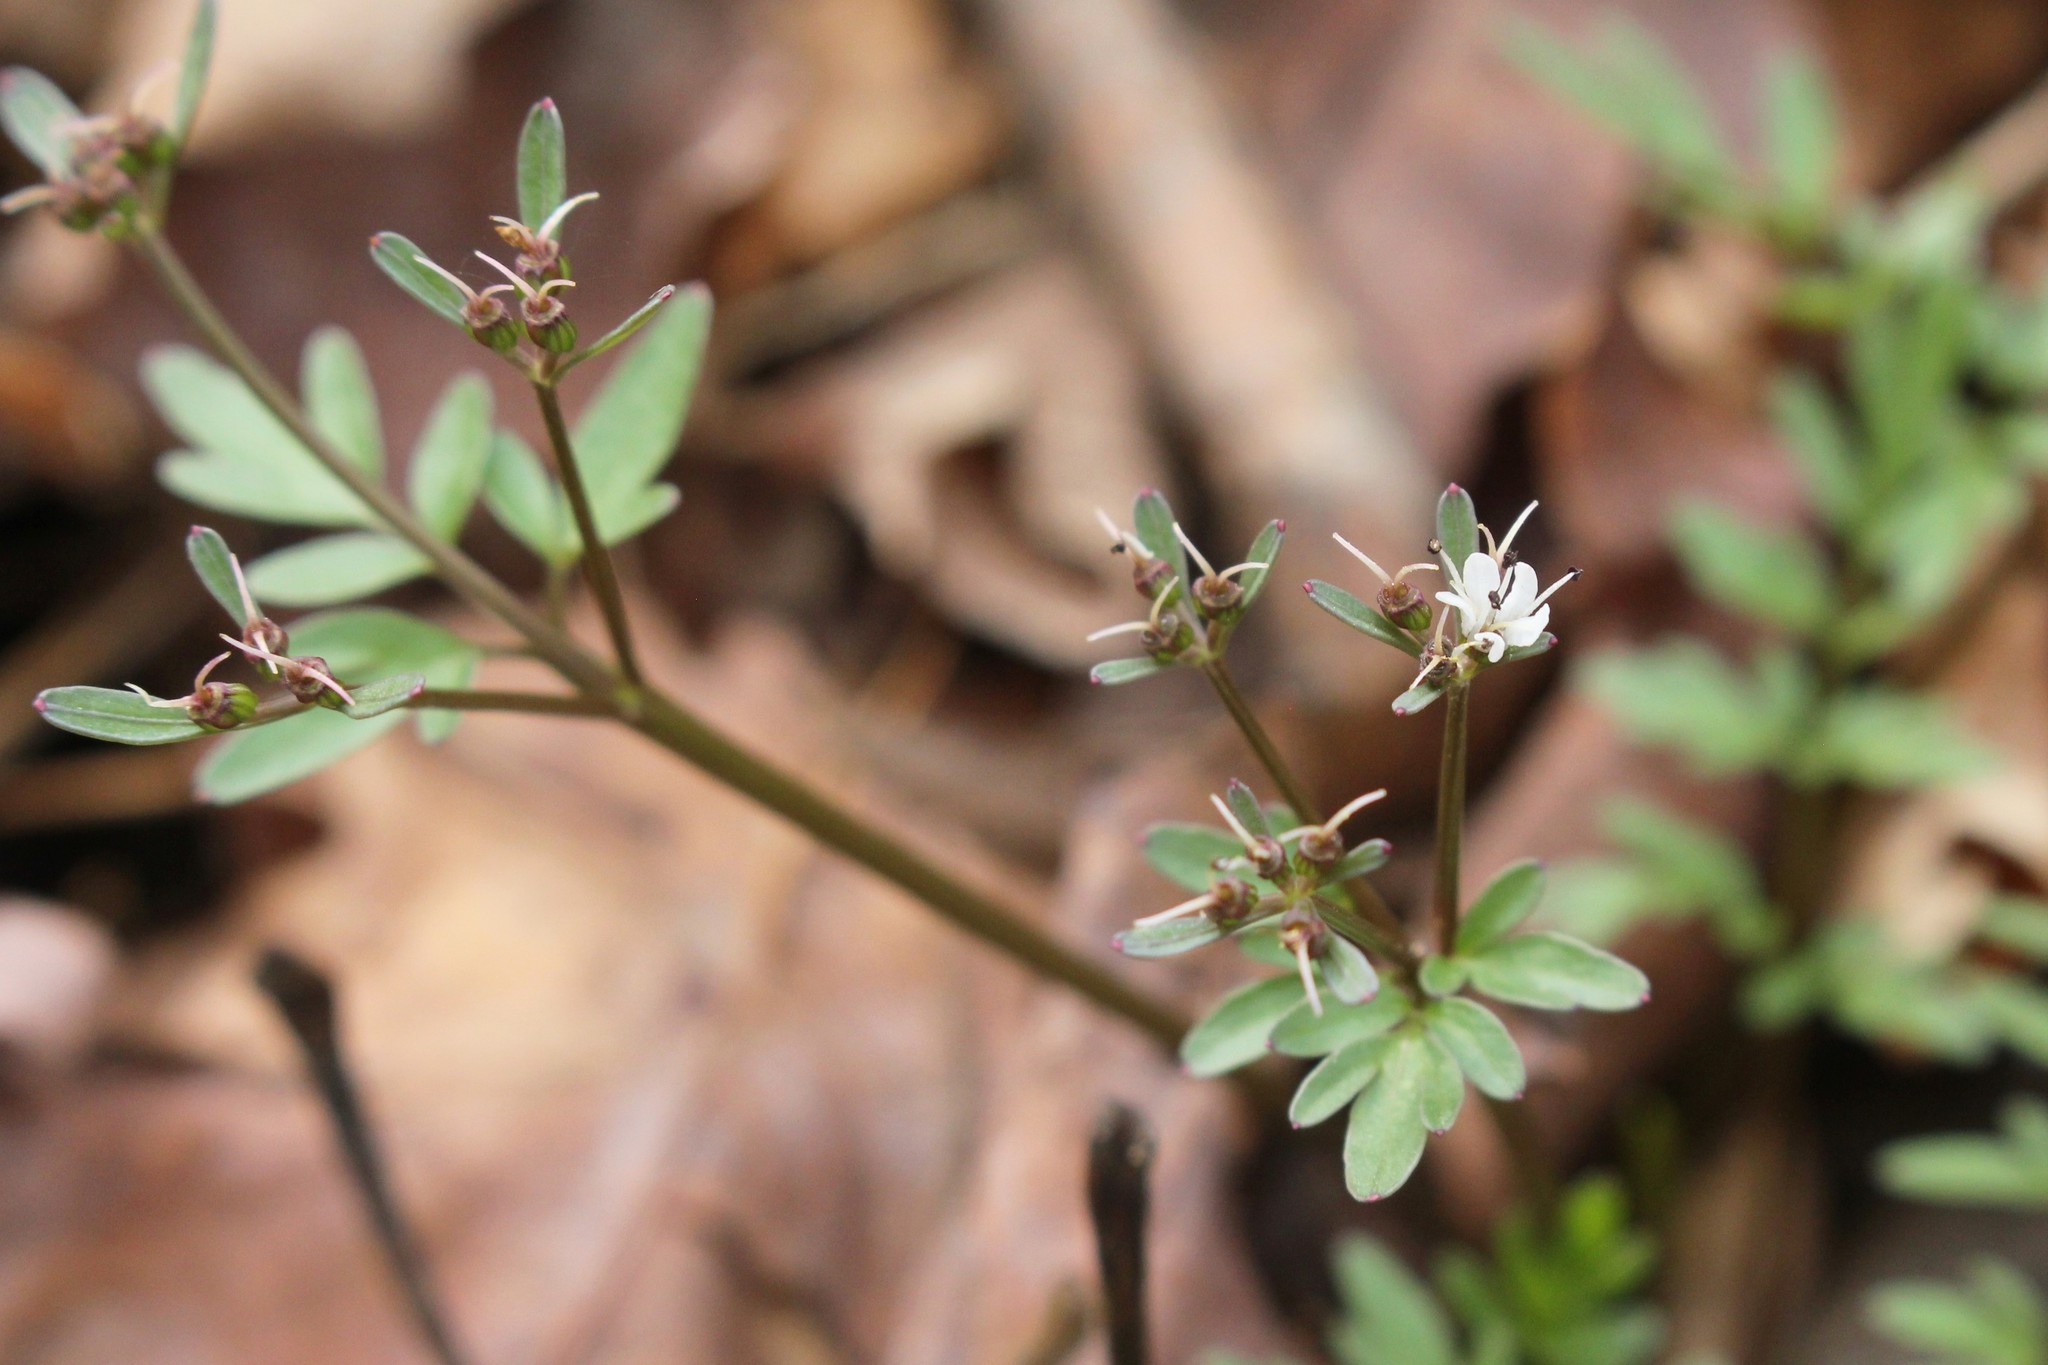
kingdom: Plantae
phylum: Tracheophyta
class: Magnoliopsida
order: Apiales
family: Apiaceae
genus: Erigenia
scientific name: Erigenia bulbosa
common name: Pepper-and-salt
